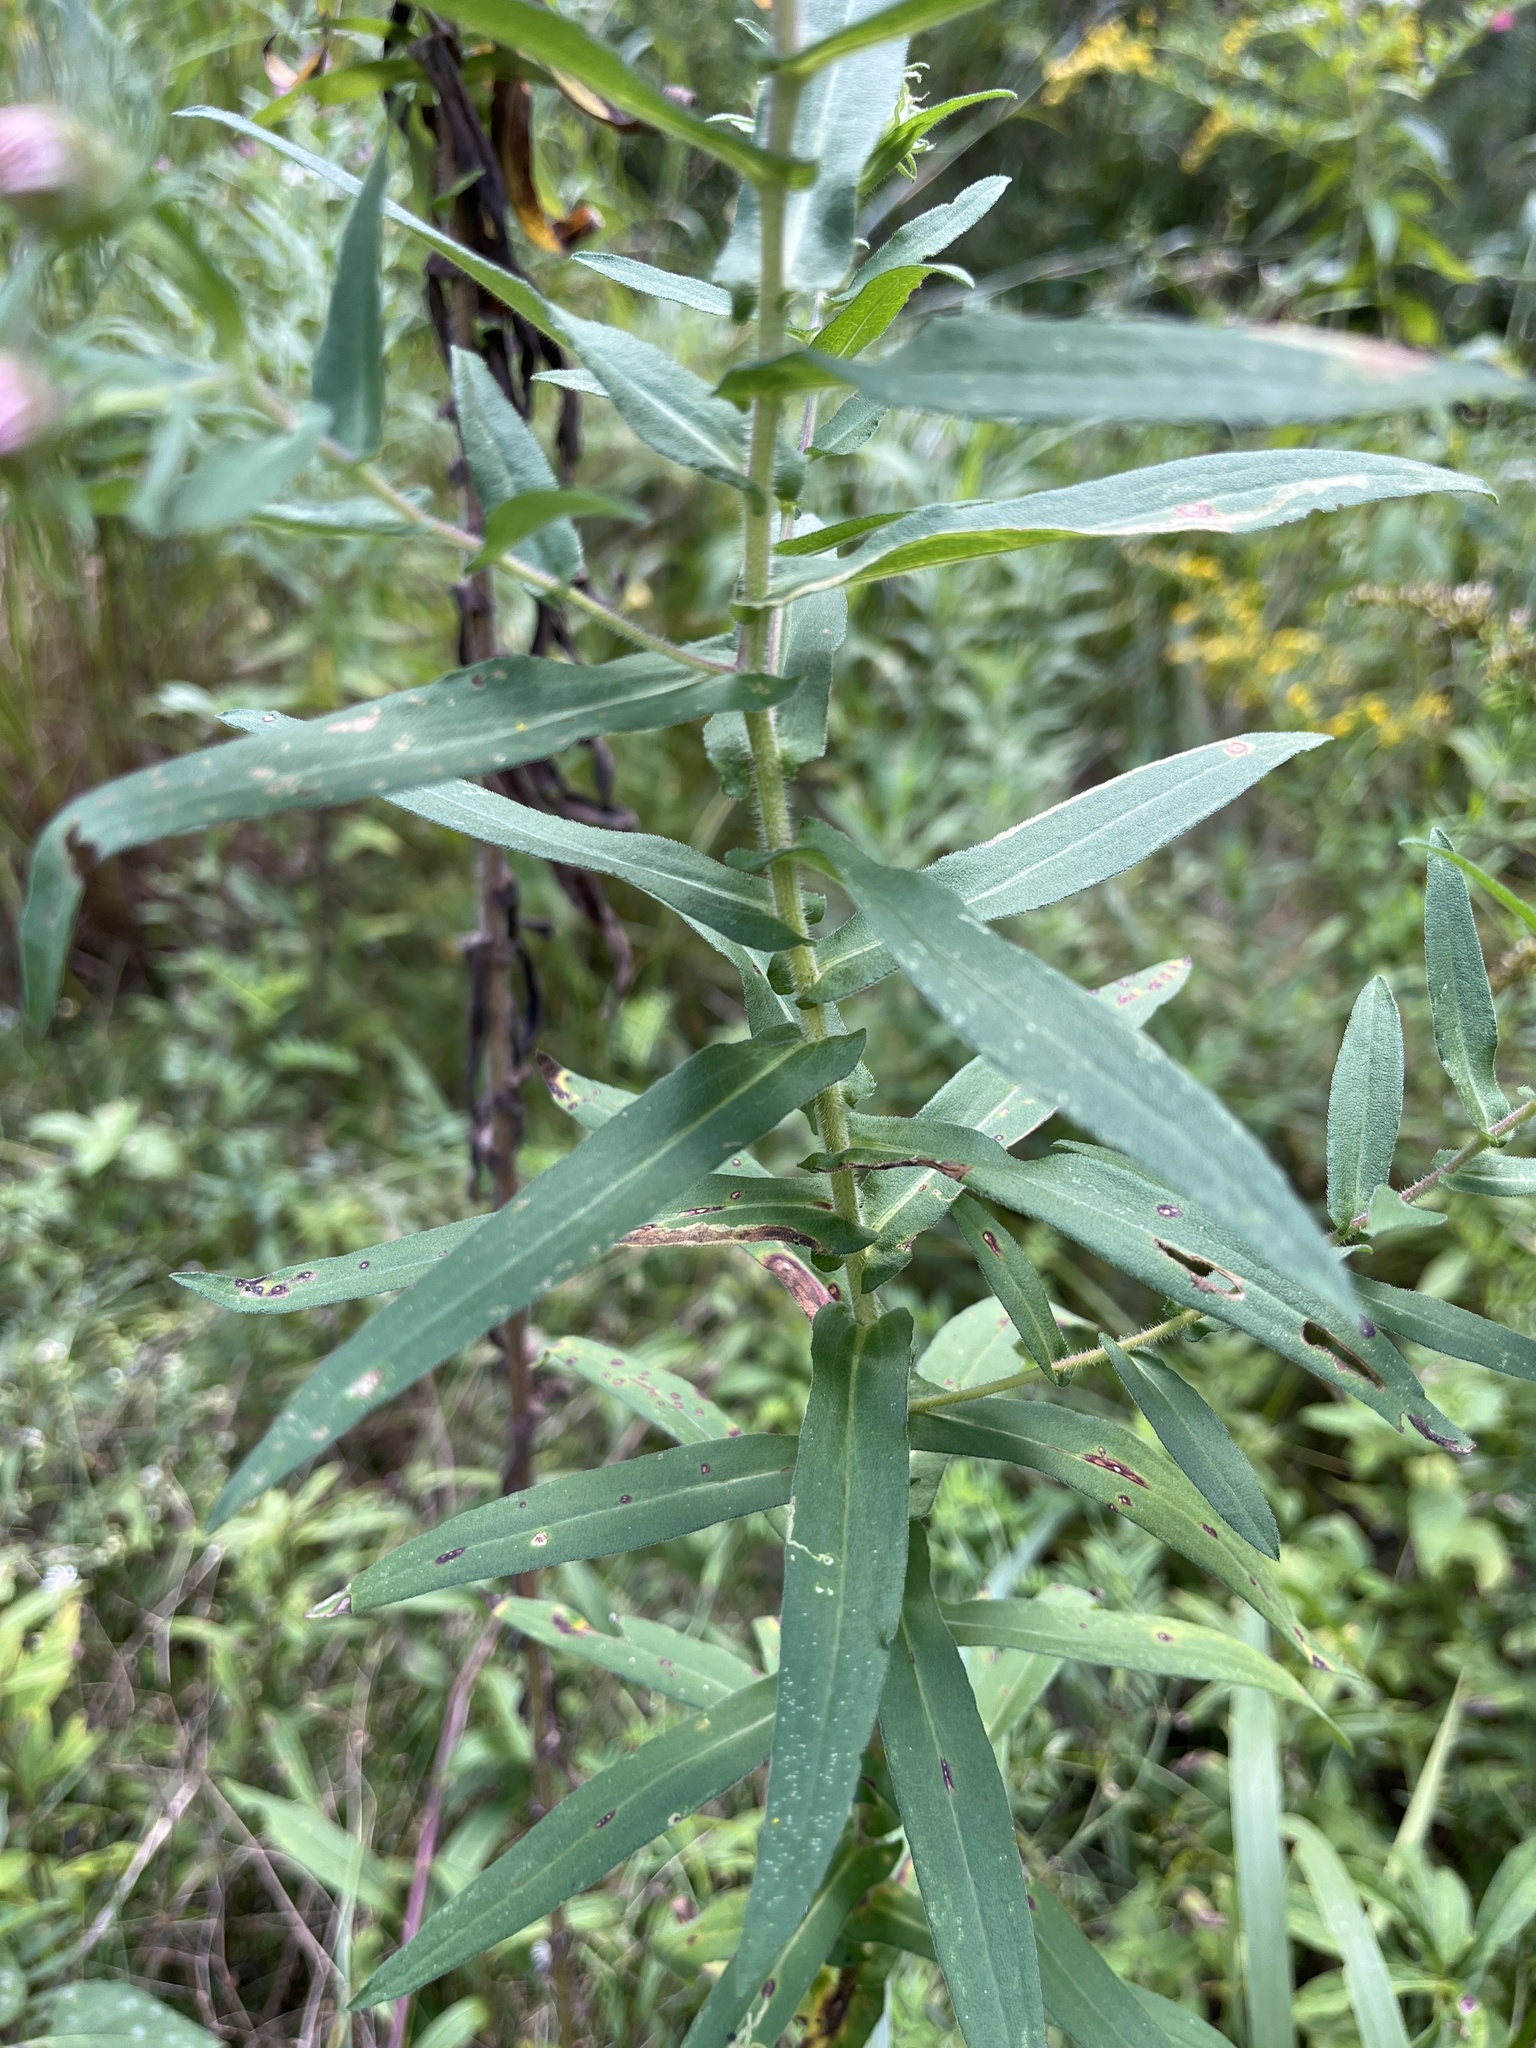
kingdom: Plantae
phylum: Tracheophyta
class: Magnoliopsida
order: Asterales
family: Asteraceae
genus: Symphyotrichum
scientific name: Symphyotrichum novae-angliae
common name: Michaelmas daisy
